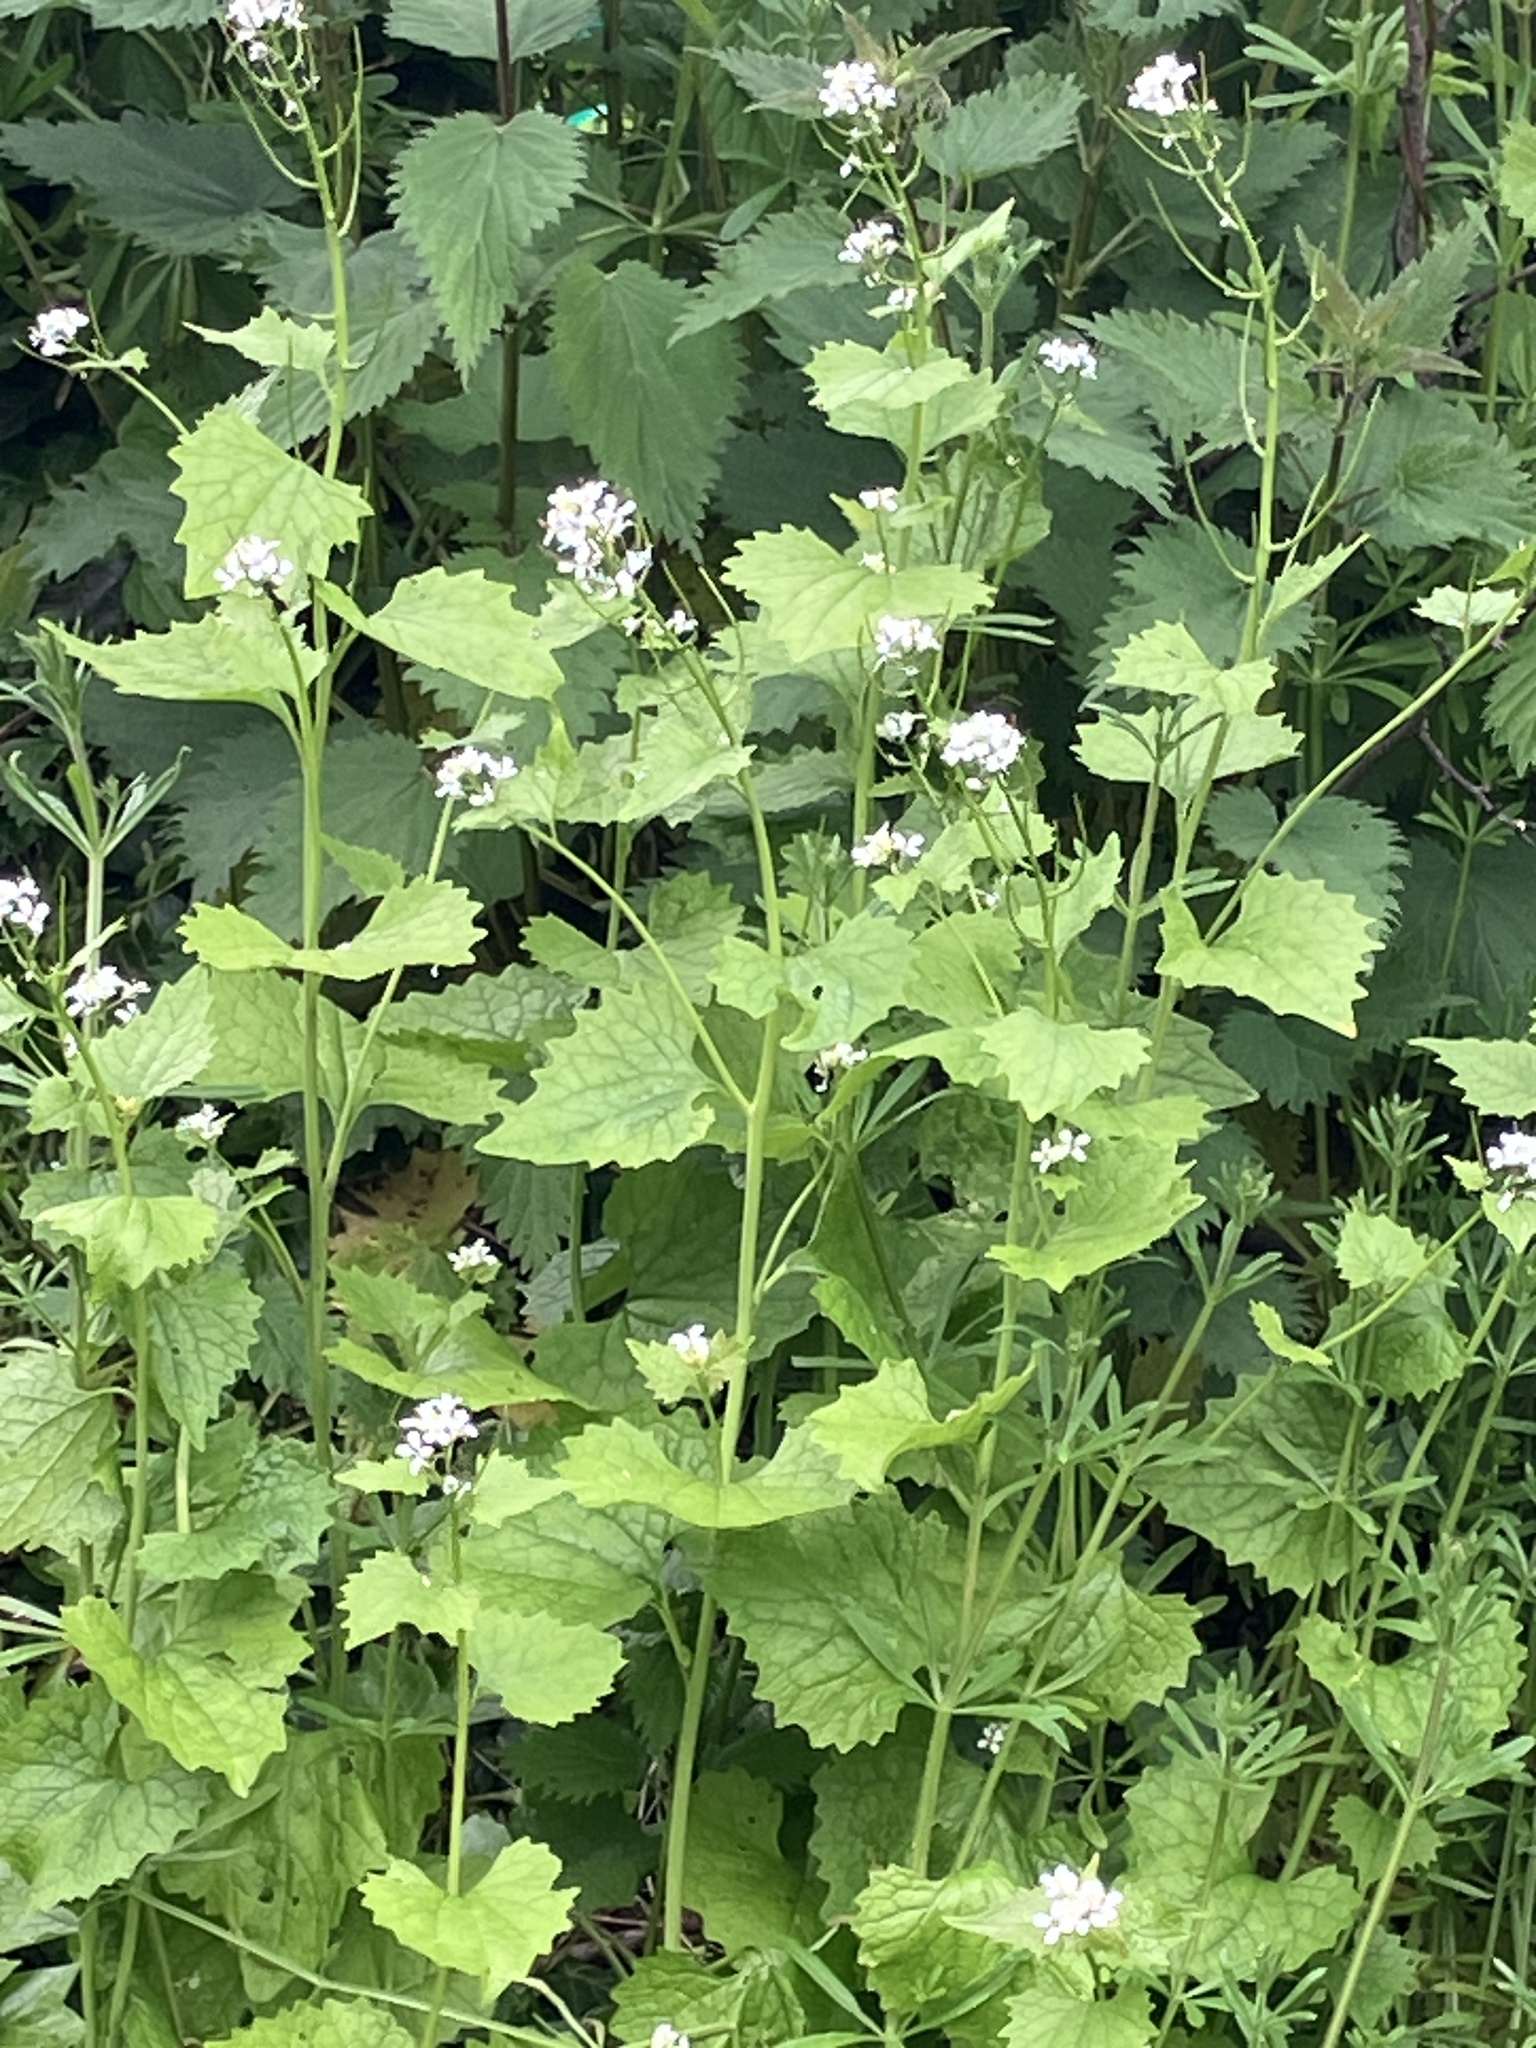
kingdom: Plantae
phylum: Tracheophyta
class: Magnoliopsida
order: Brassicales
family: Brassicaceae
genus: Alliaria
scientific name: Alliaria petiolata
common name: Garlic mustard
